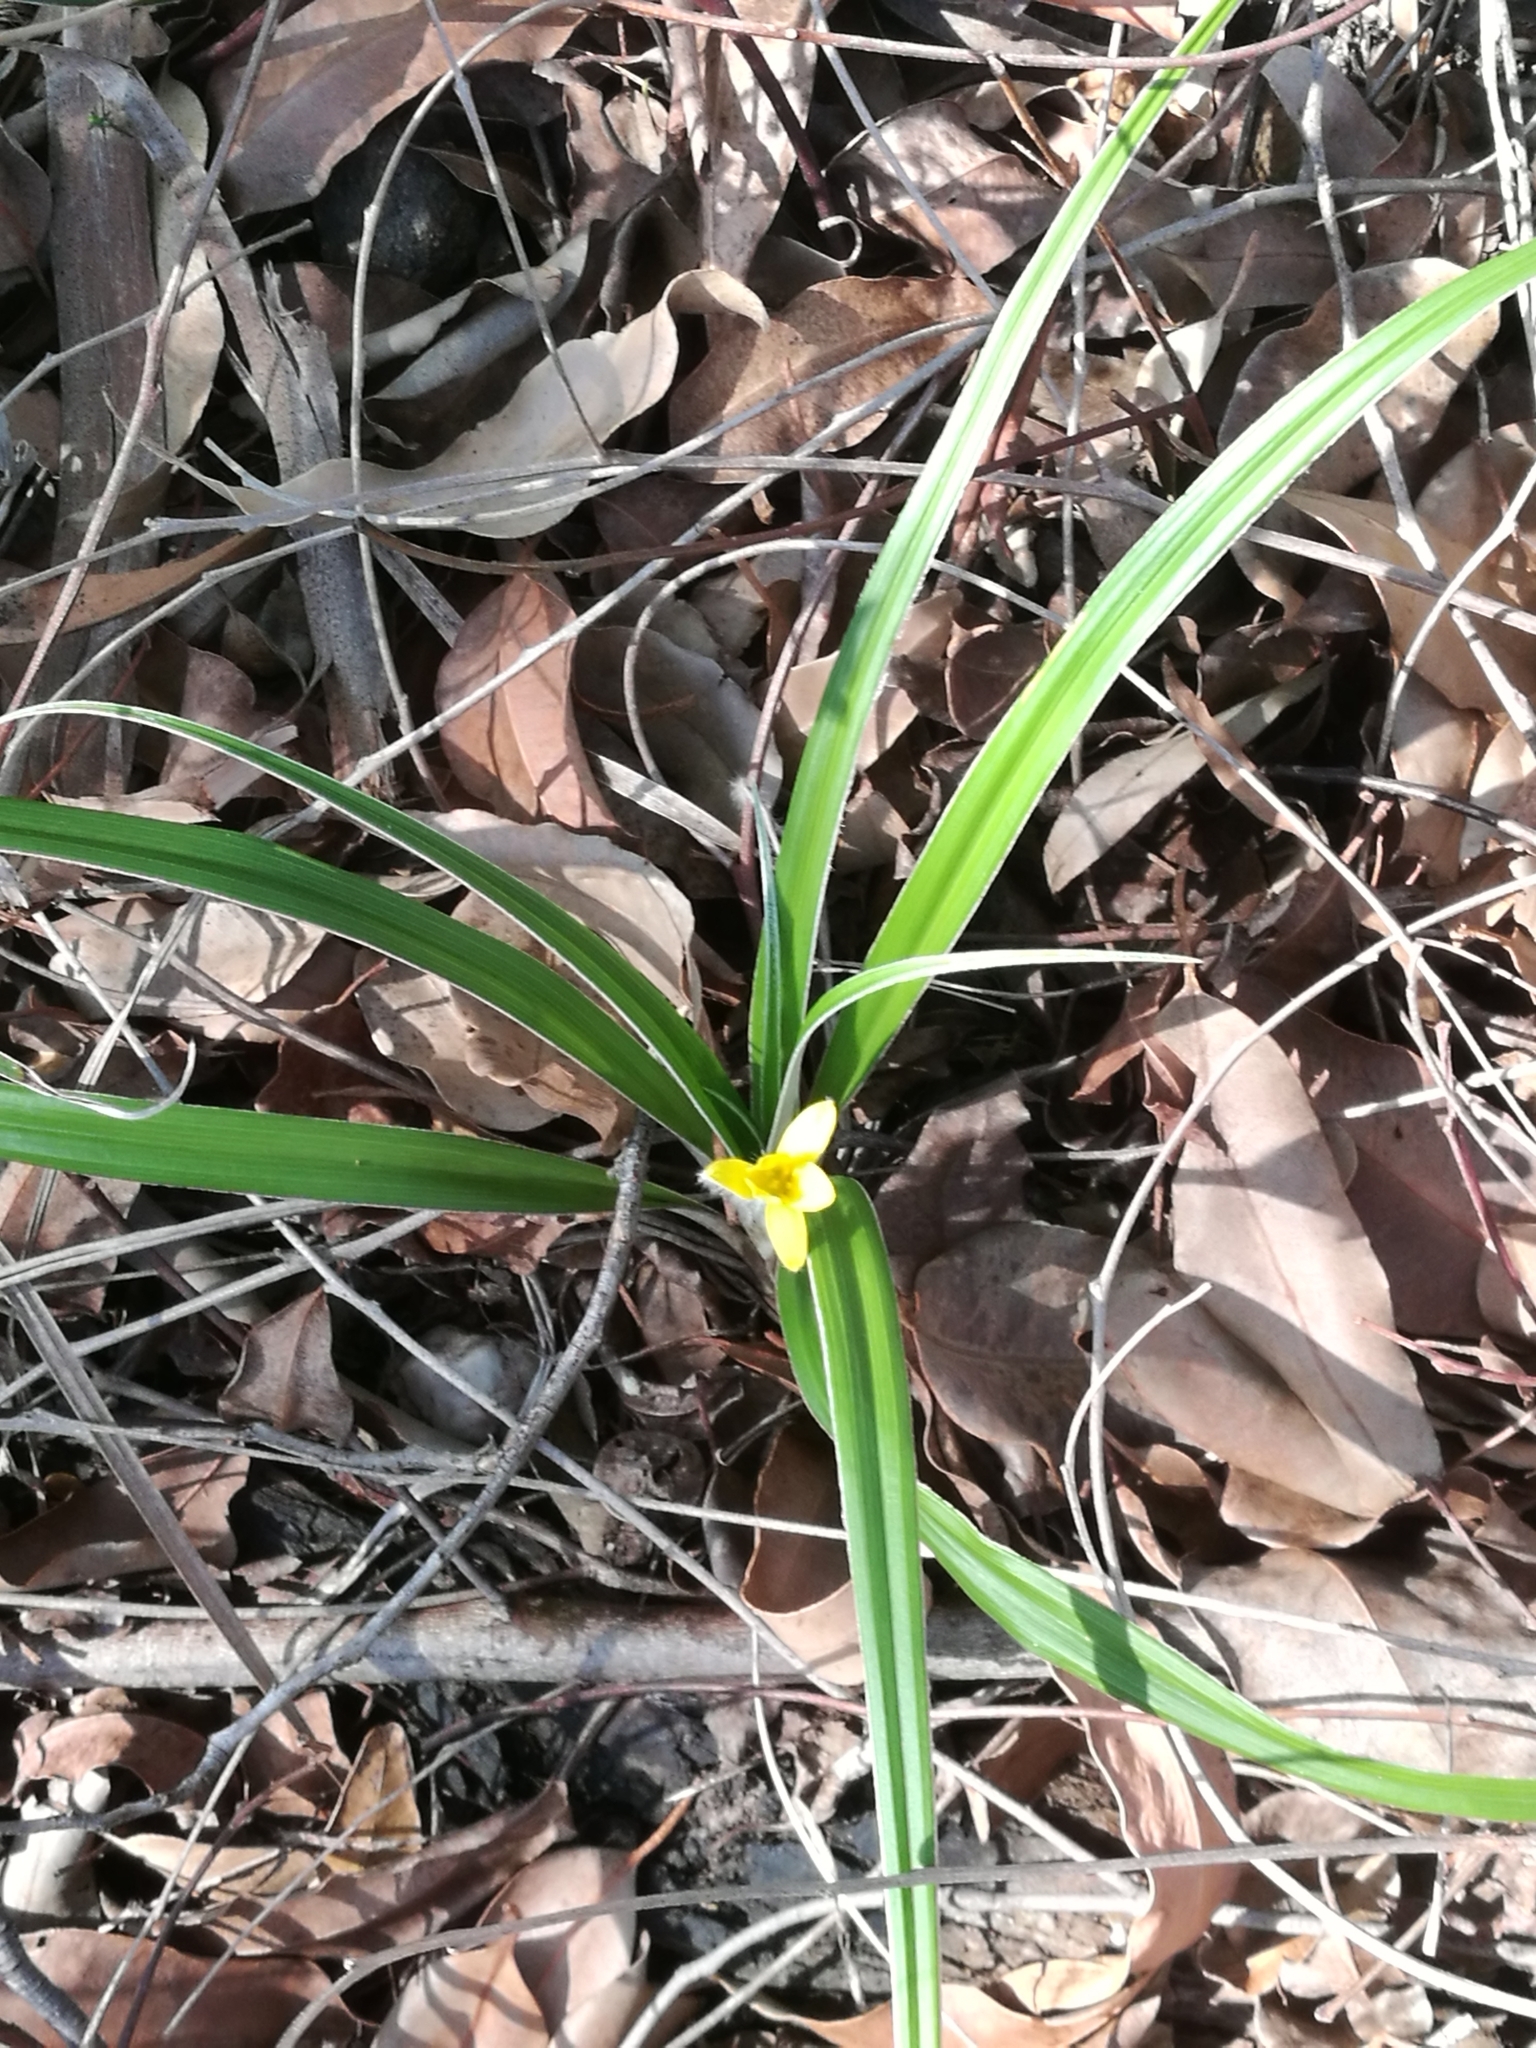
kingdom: Plantae
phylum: Tracheophyta
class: Liliopsida
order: Asparagales
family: Hypoxidaceae
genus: Hypoxis
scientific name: Hypoxis stellipilis
